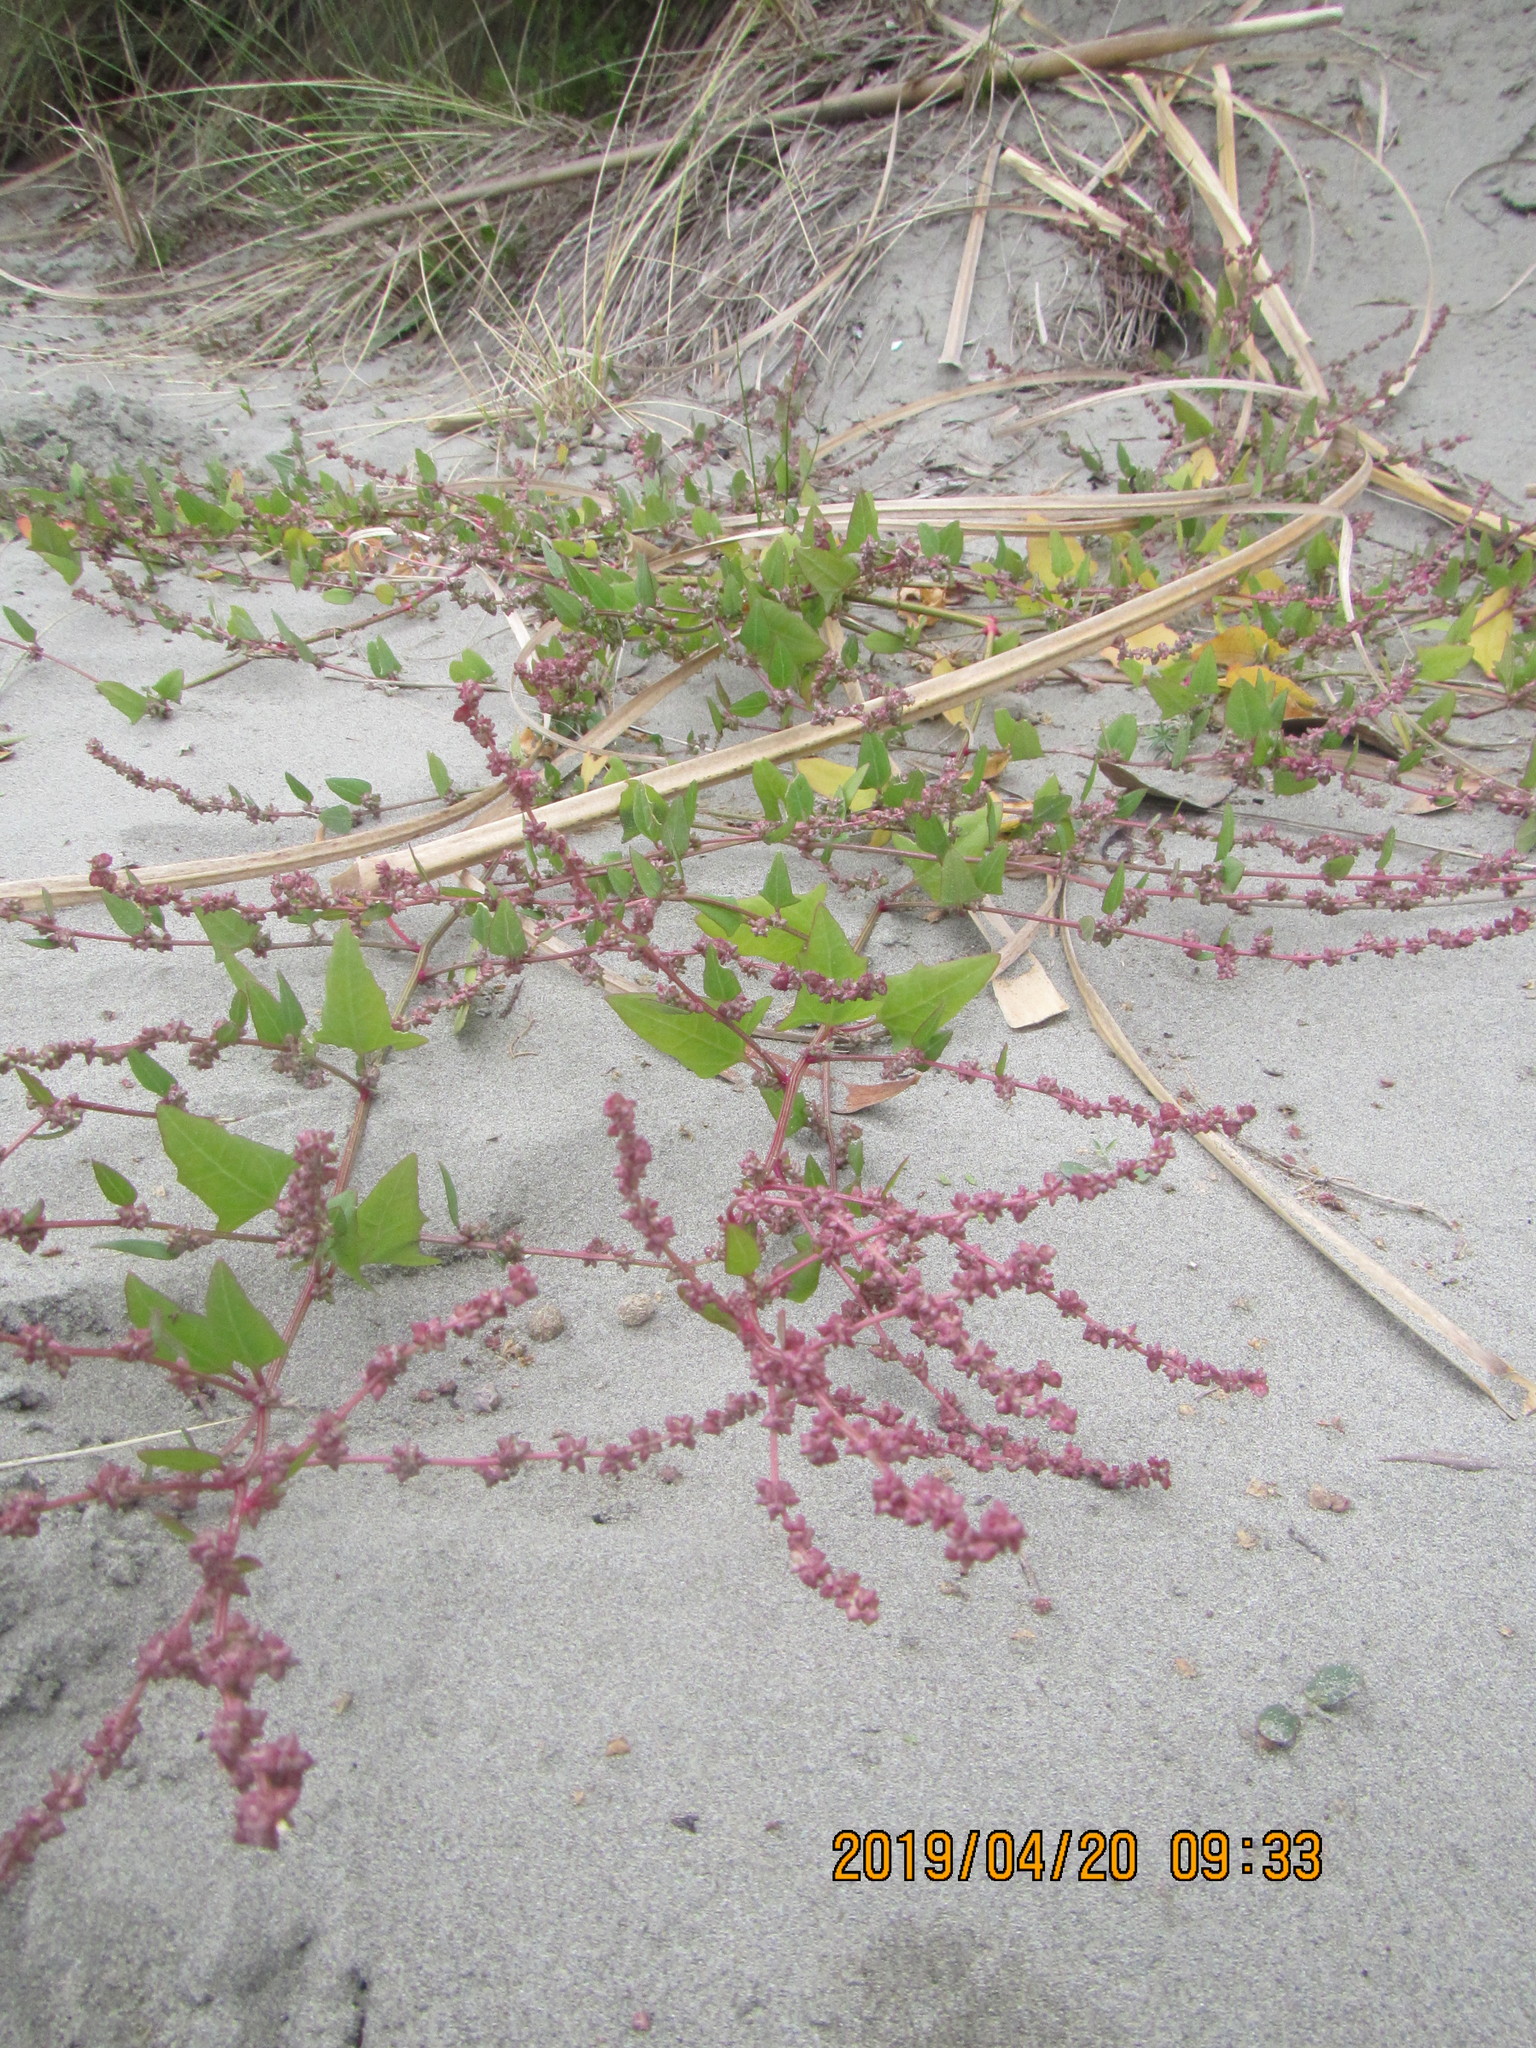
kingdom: Plantae
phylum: Tracheophyta
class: Magnoliopsida
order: Caryophyllales
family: Amaranthaceae
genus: Atriplex
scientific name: Atriplex prostrata
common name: Spear-leaved orache
